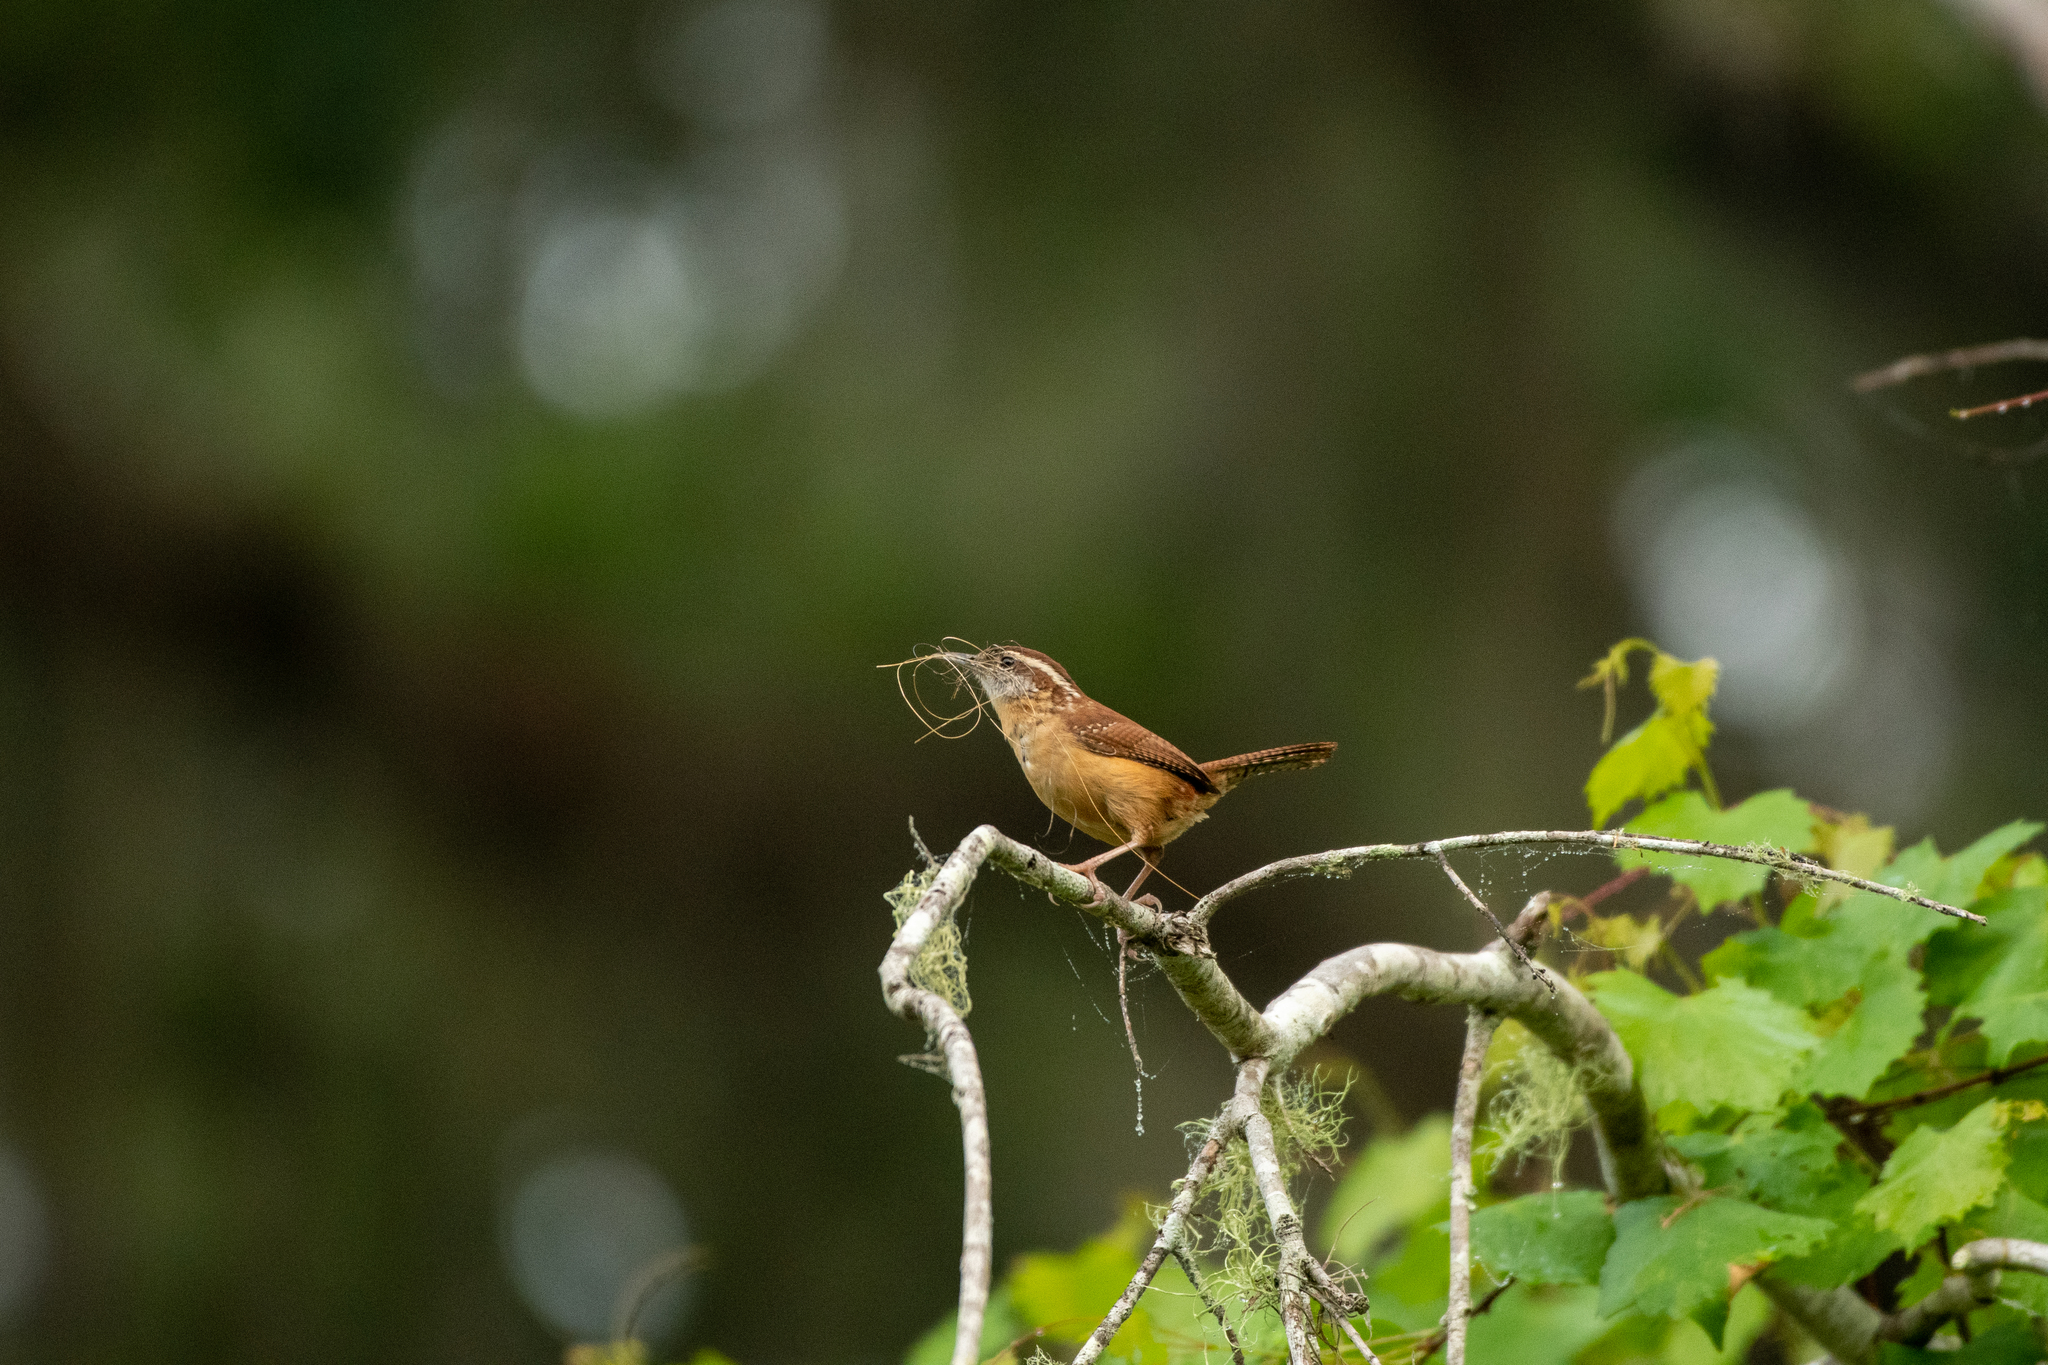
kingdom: Animalia
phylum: Chordata
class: Aves
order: Passeriformes
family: Troglodytidae
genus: Thryothorus
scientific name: Thryothorus ludovicianus
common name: Carolina wren
